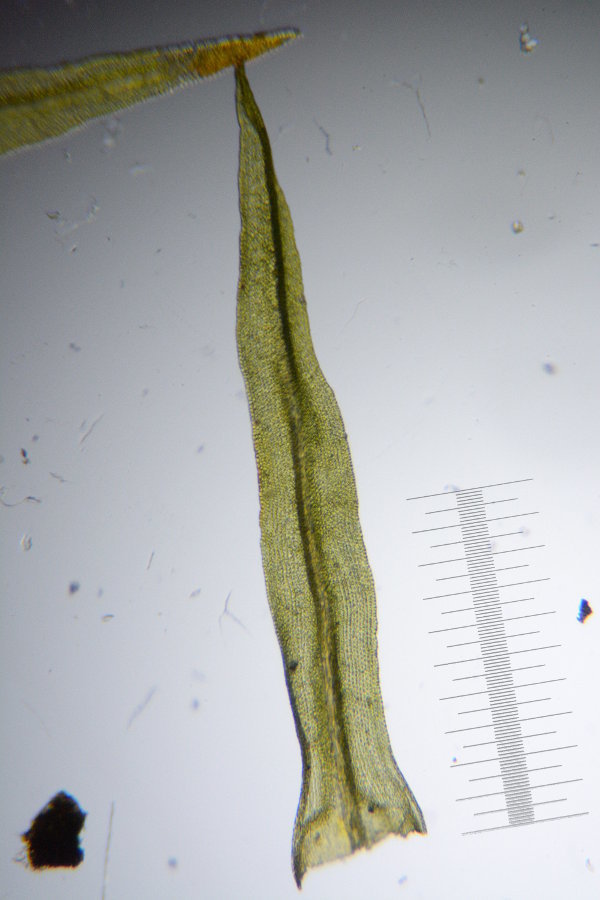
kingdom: Plantae
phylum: Bryophyta
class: Bryopsida
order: Orthotrichales
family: Orthotrichaceae
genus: Ulota
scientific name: Ulota crispa
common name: Crisped pincushion moss
